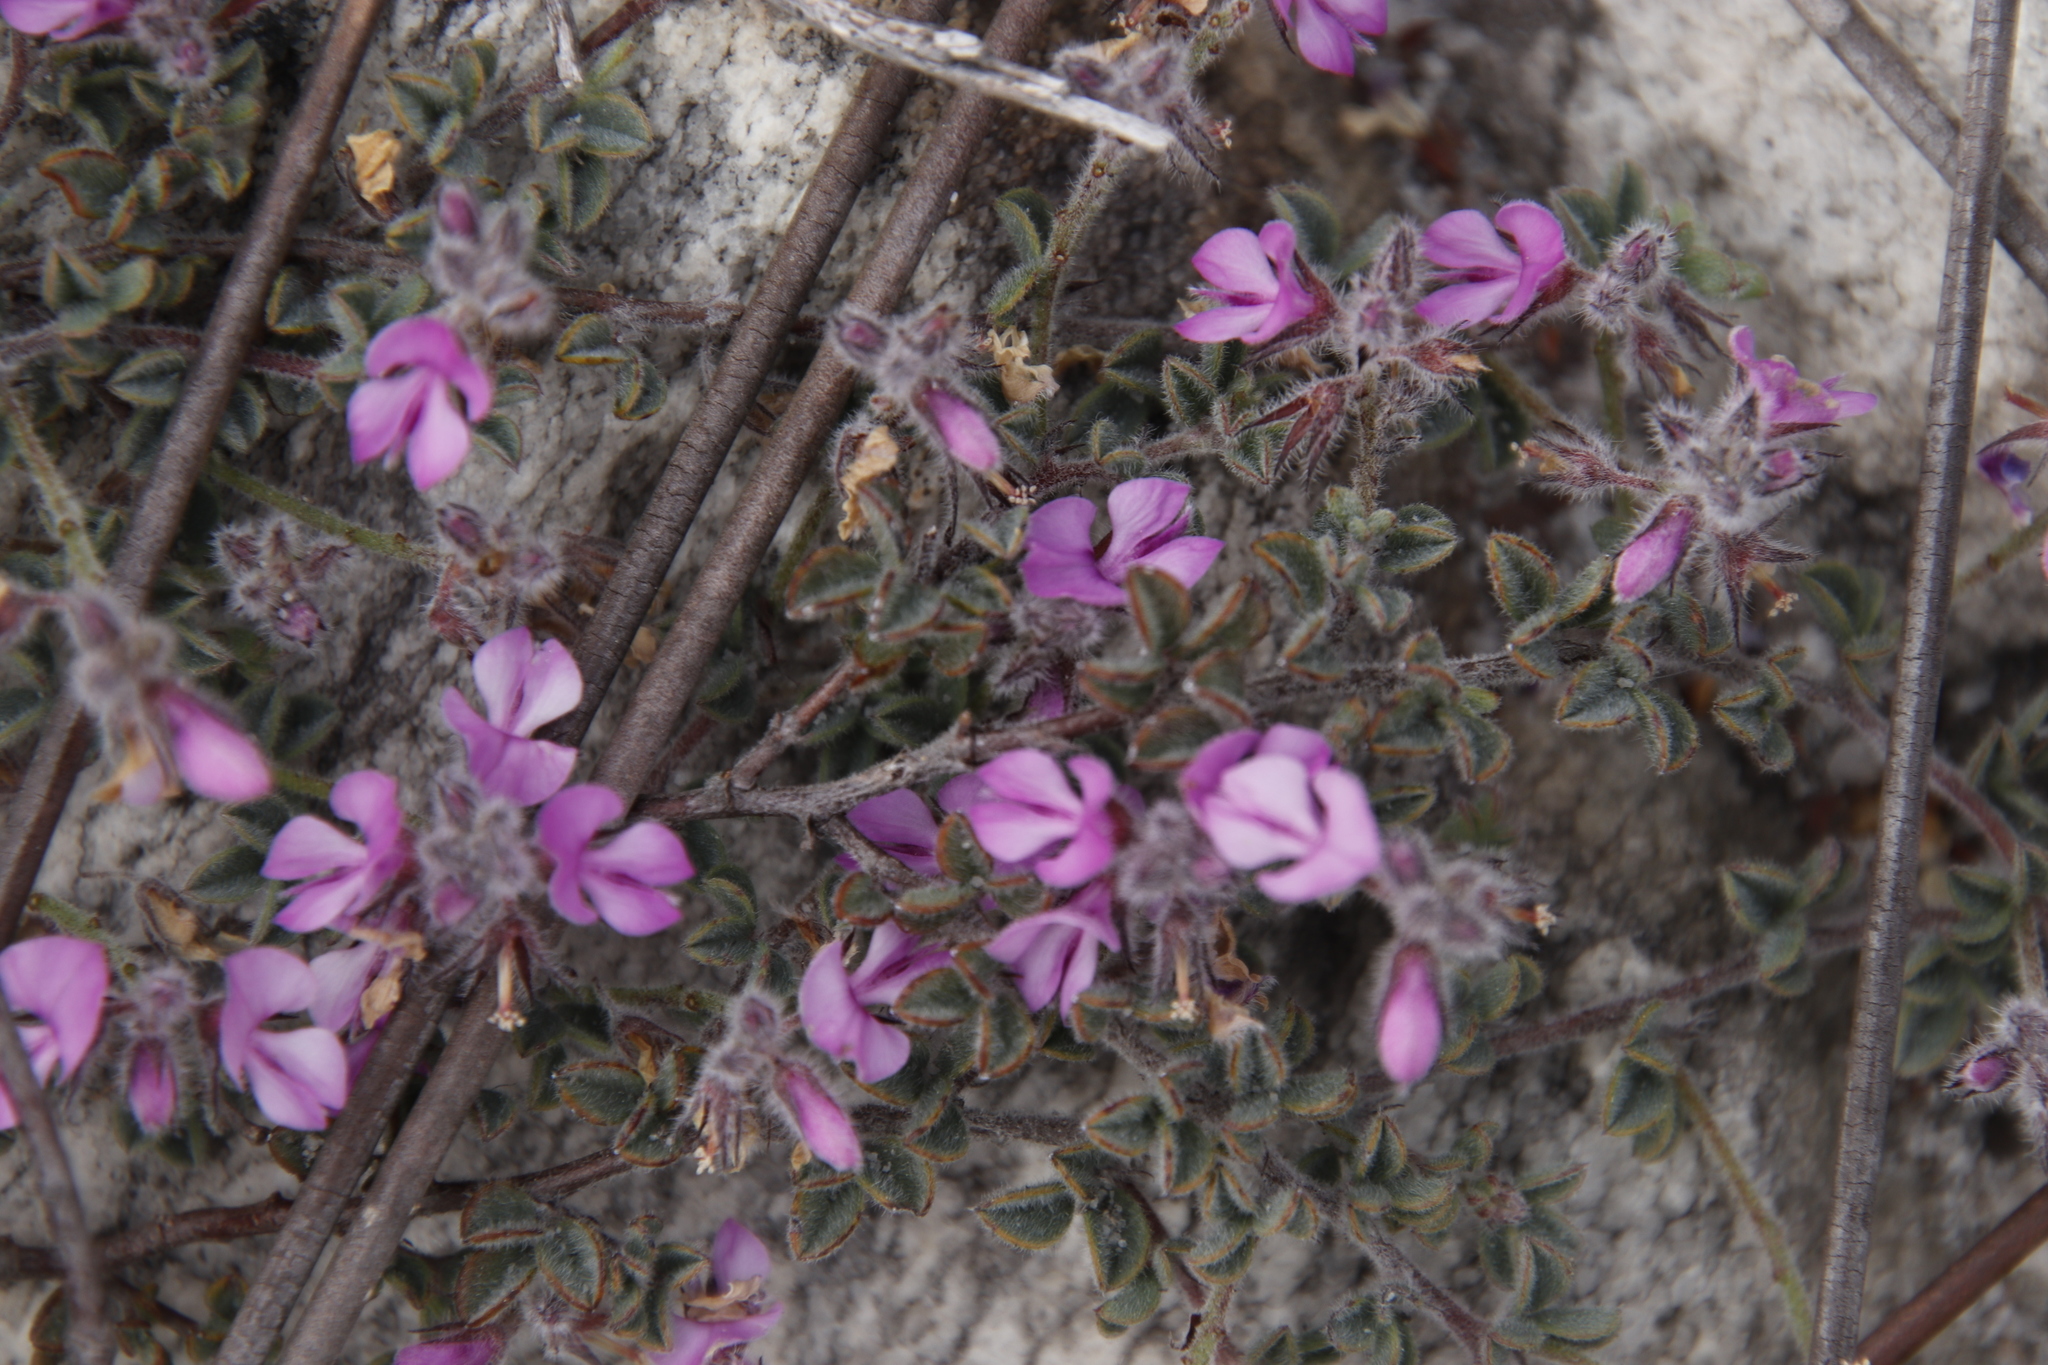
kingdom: Plantae
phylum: Tracheophyta
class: Magnoliopsida
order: Fabales
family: Fabaceae
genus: Indigofera
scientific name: Indigofera
